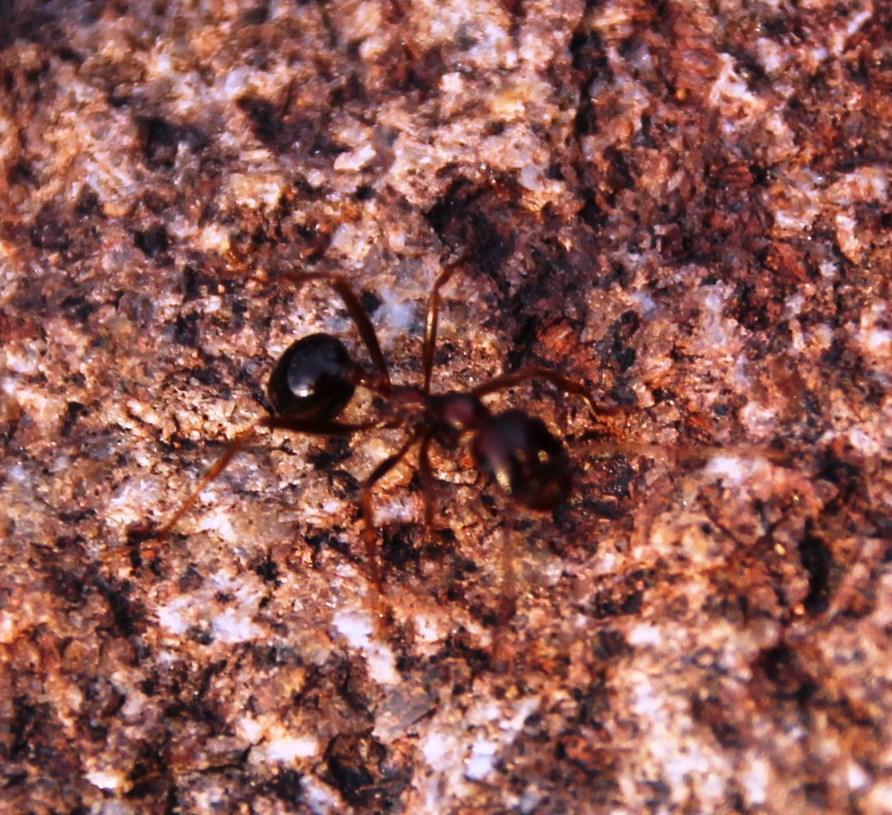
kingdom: Animalia
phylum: Arthropoda
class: Insecta
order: Hymenoptera
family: Formicidae
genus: Messor
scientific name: Messor capensis
